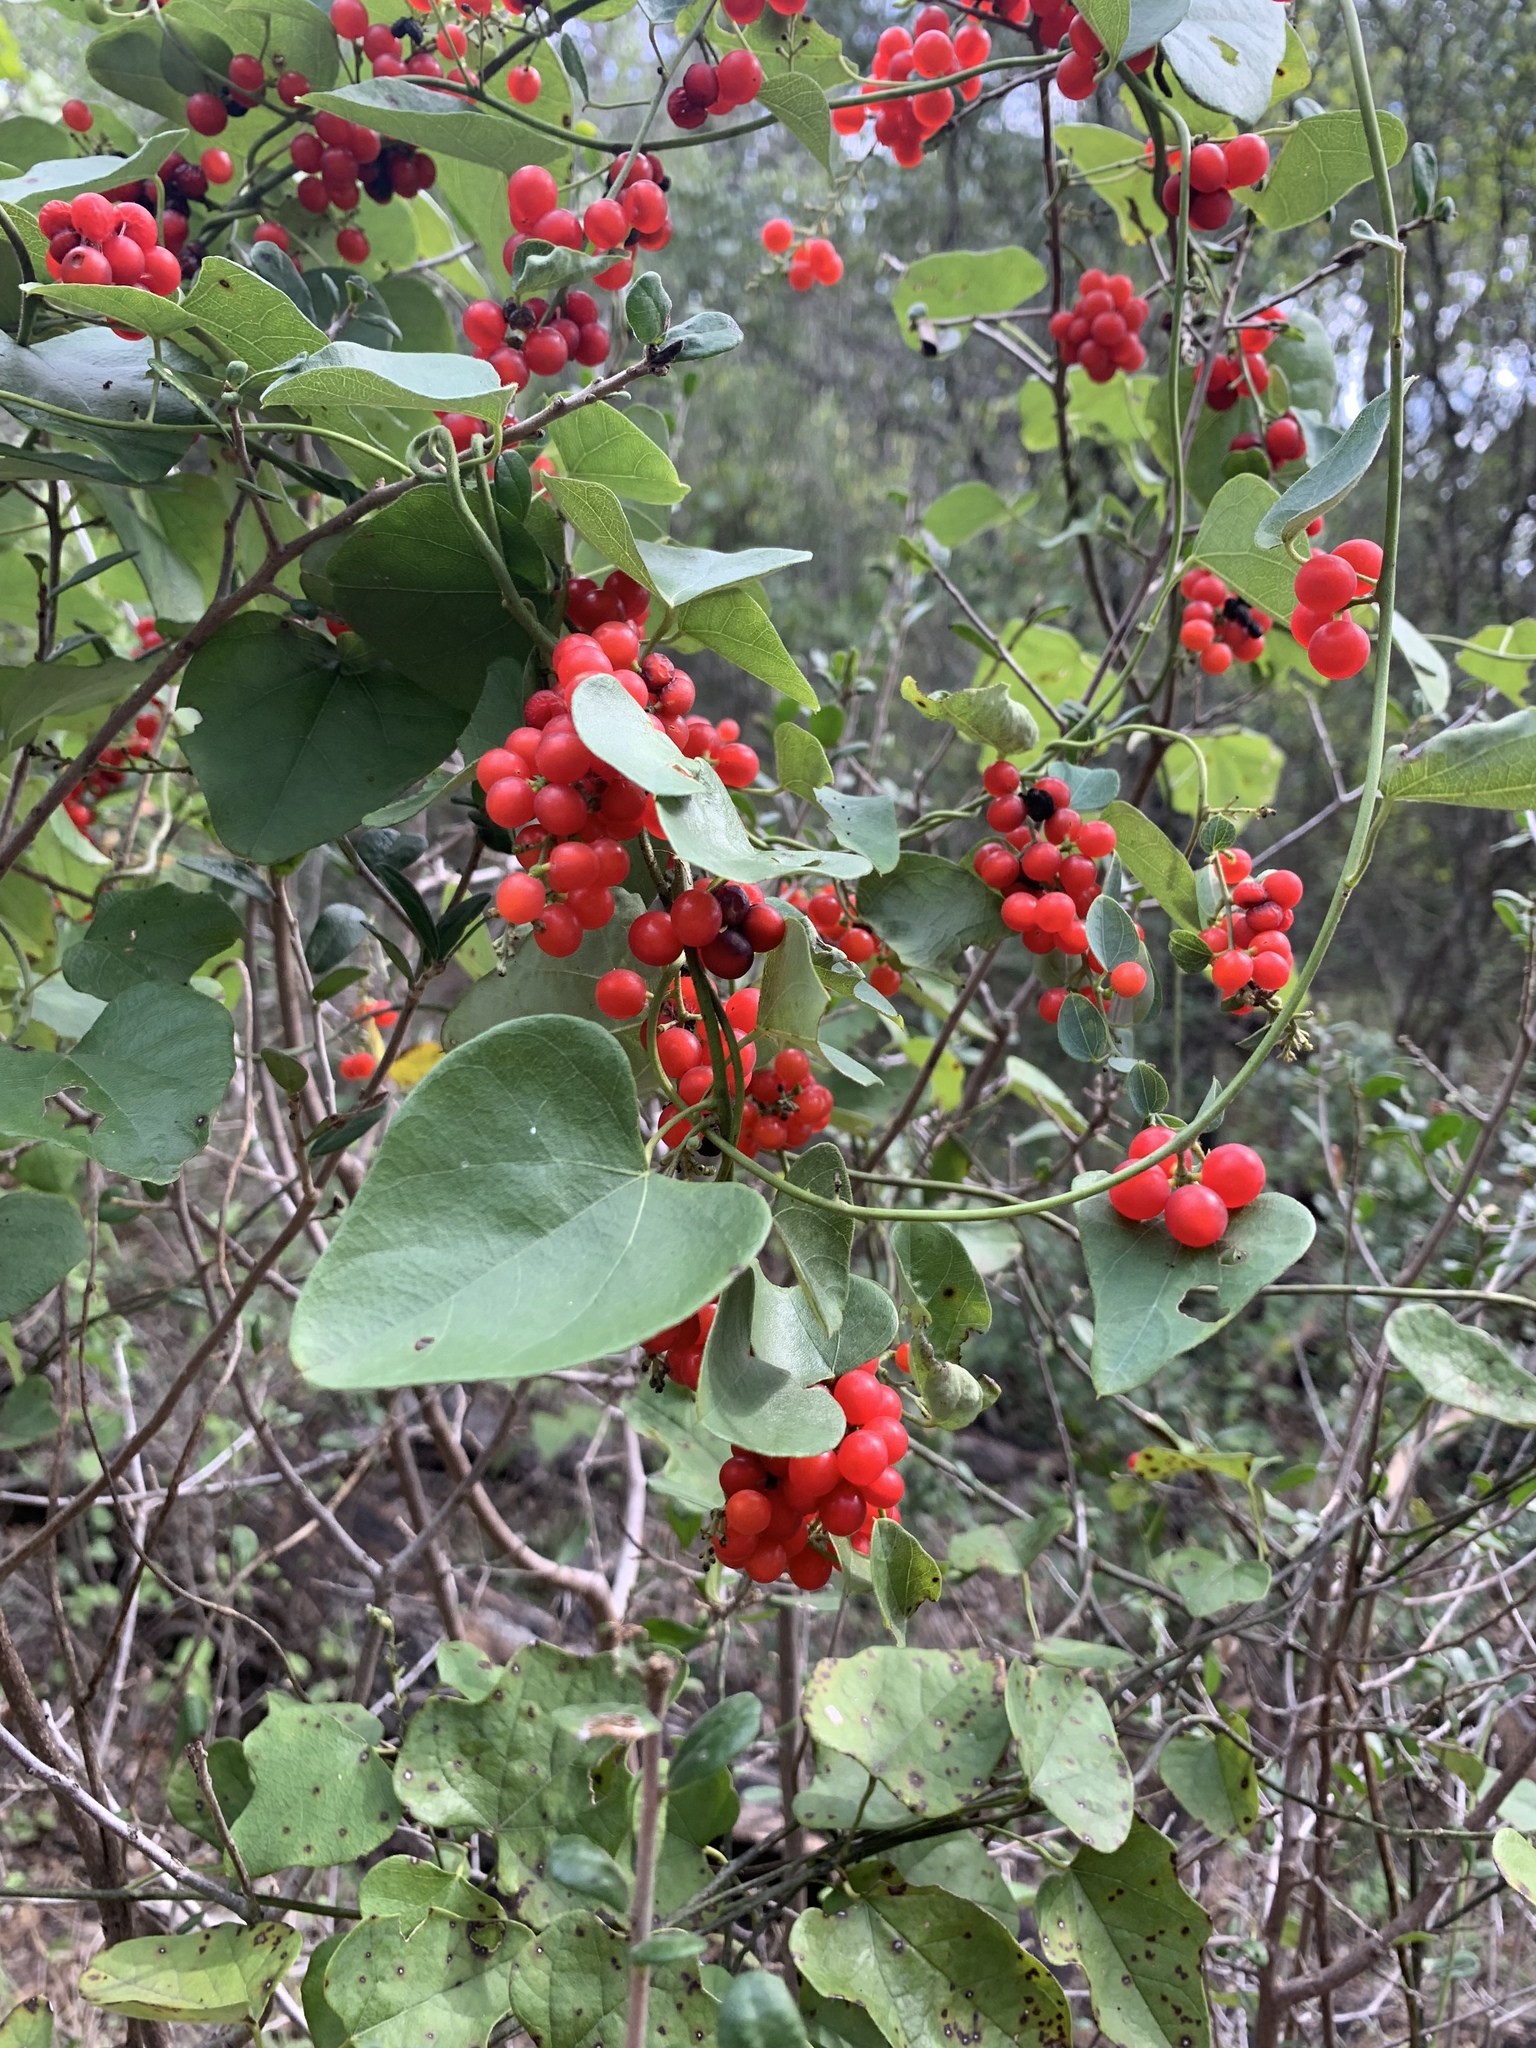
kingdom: Plantae
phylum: Tracheophyta
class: Magnoliopsida
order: Ranunculales
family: Menispermaceae
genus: Cocculus
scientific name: Cocculus carolinus
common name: Carolina moonseed
